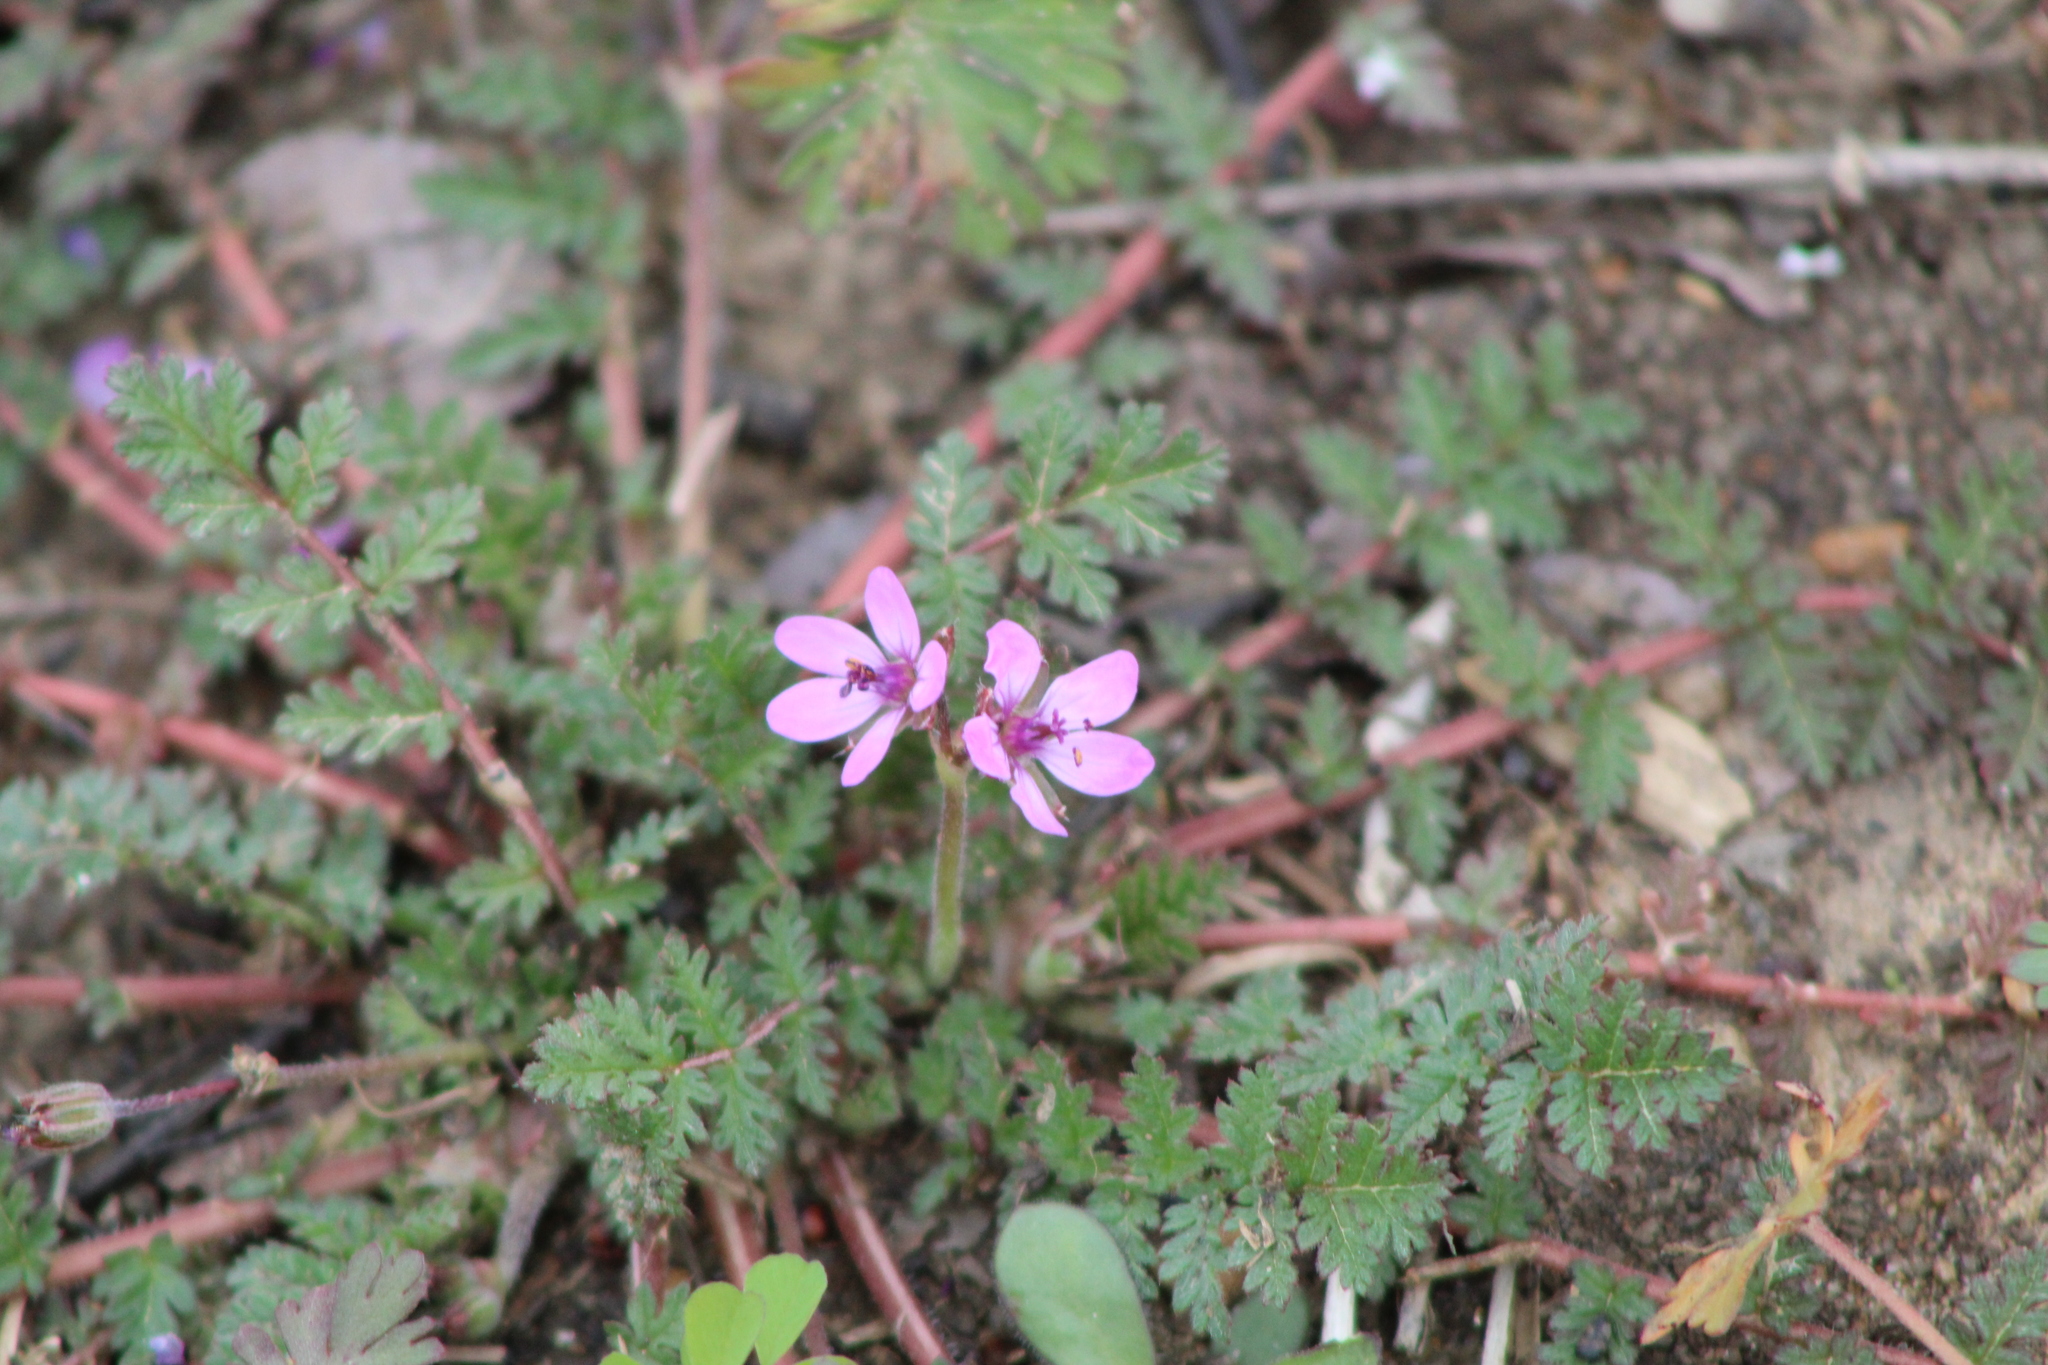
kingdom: Plantae
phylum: Tracheophyta
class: Magnoliopsida
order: Geraniales
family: Geraniaceae
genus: Erodium
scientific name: Erodium cicutarium
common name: Common stork's-bill
